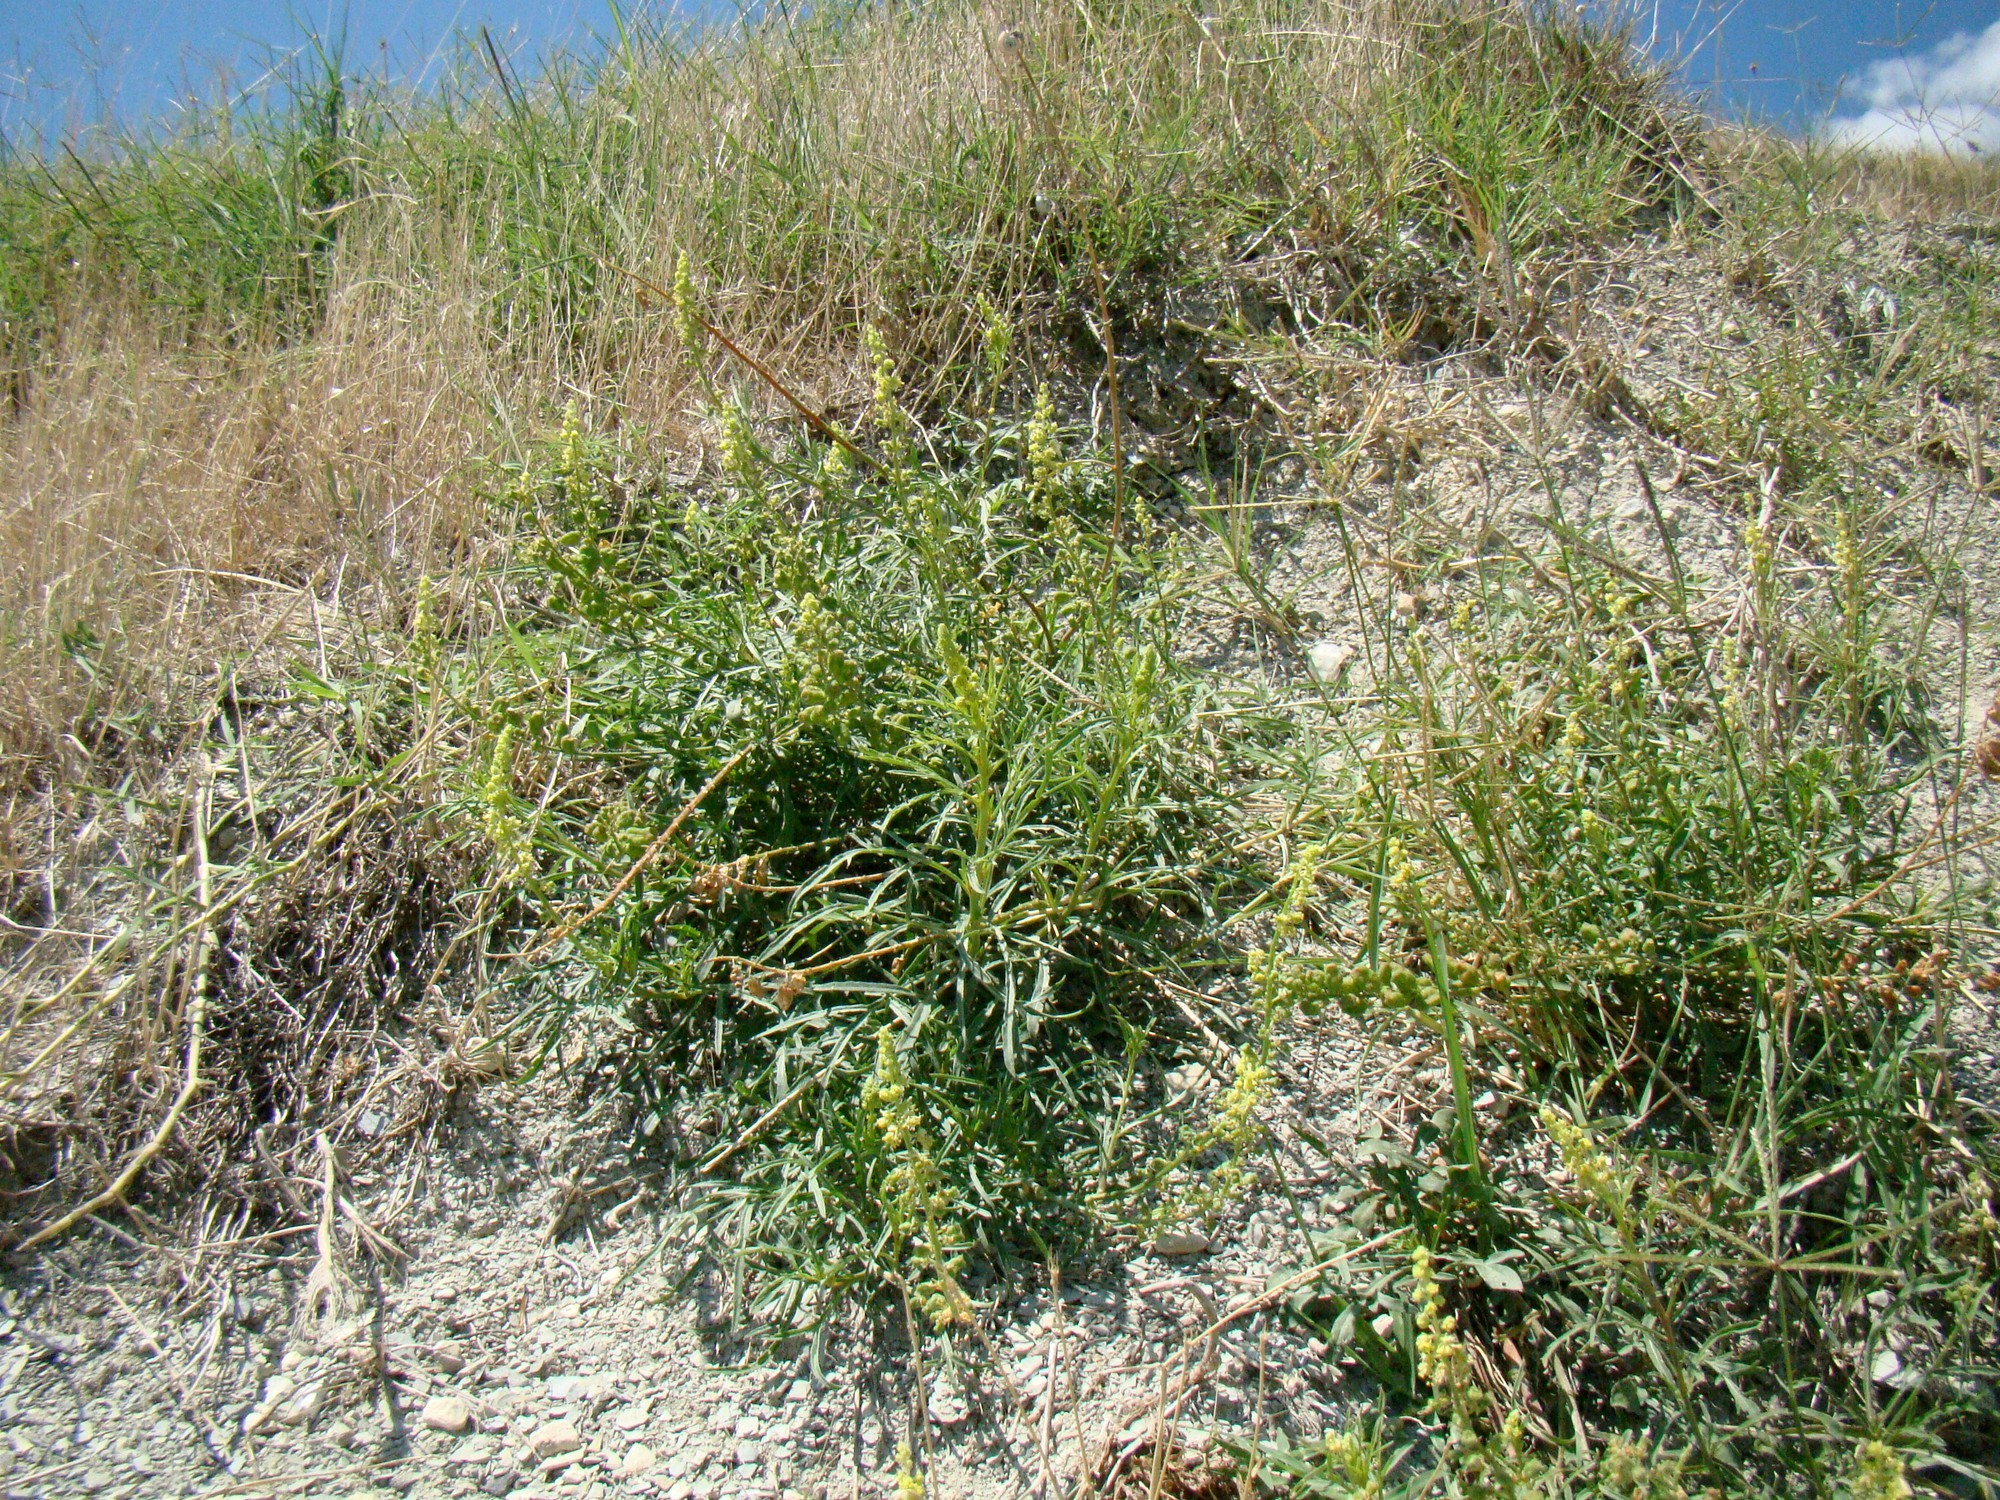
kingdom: Plantae
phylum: Tracheophyta
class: Magnoliopsida
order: Brassicales
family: Resedaceae
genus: Reseda
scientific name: Reseda lutea
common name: Wild mignonette
